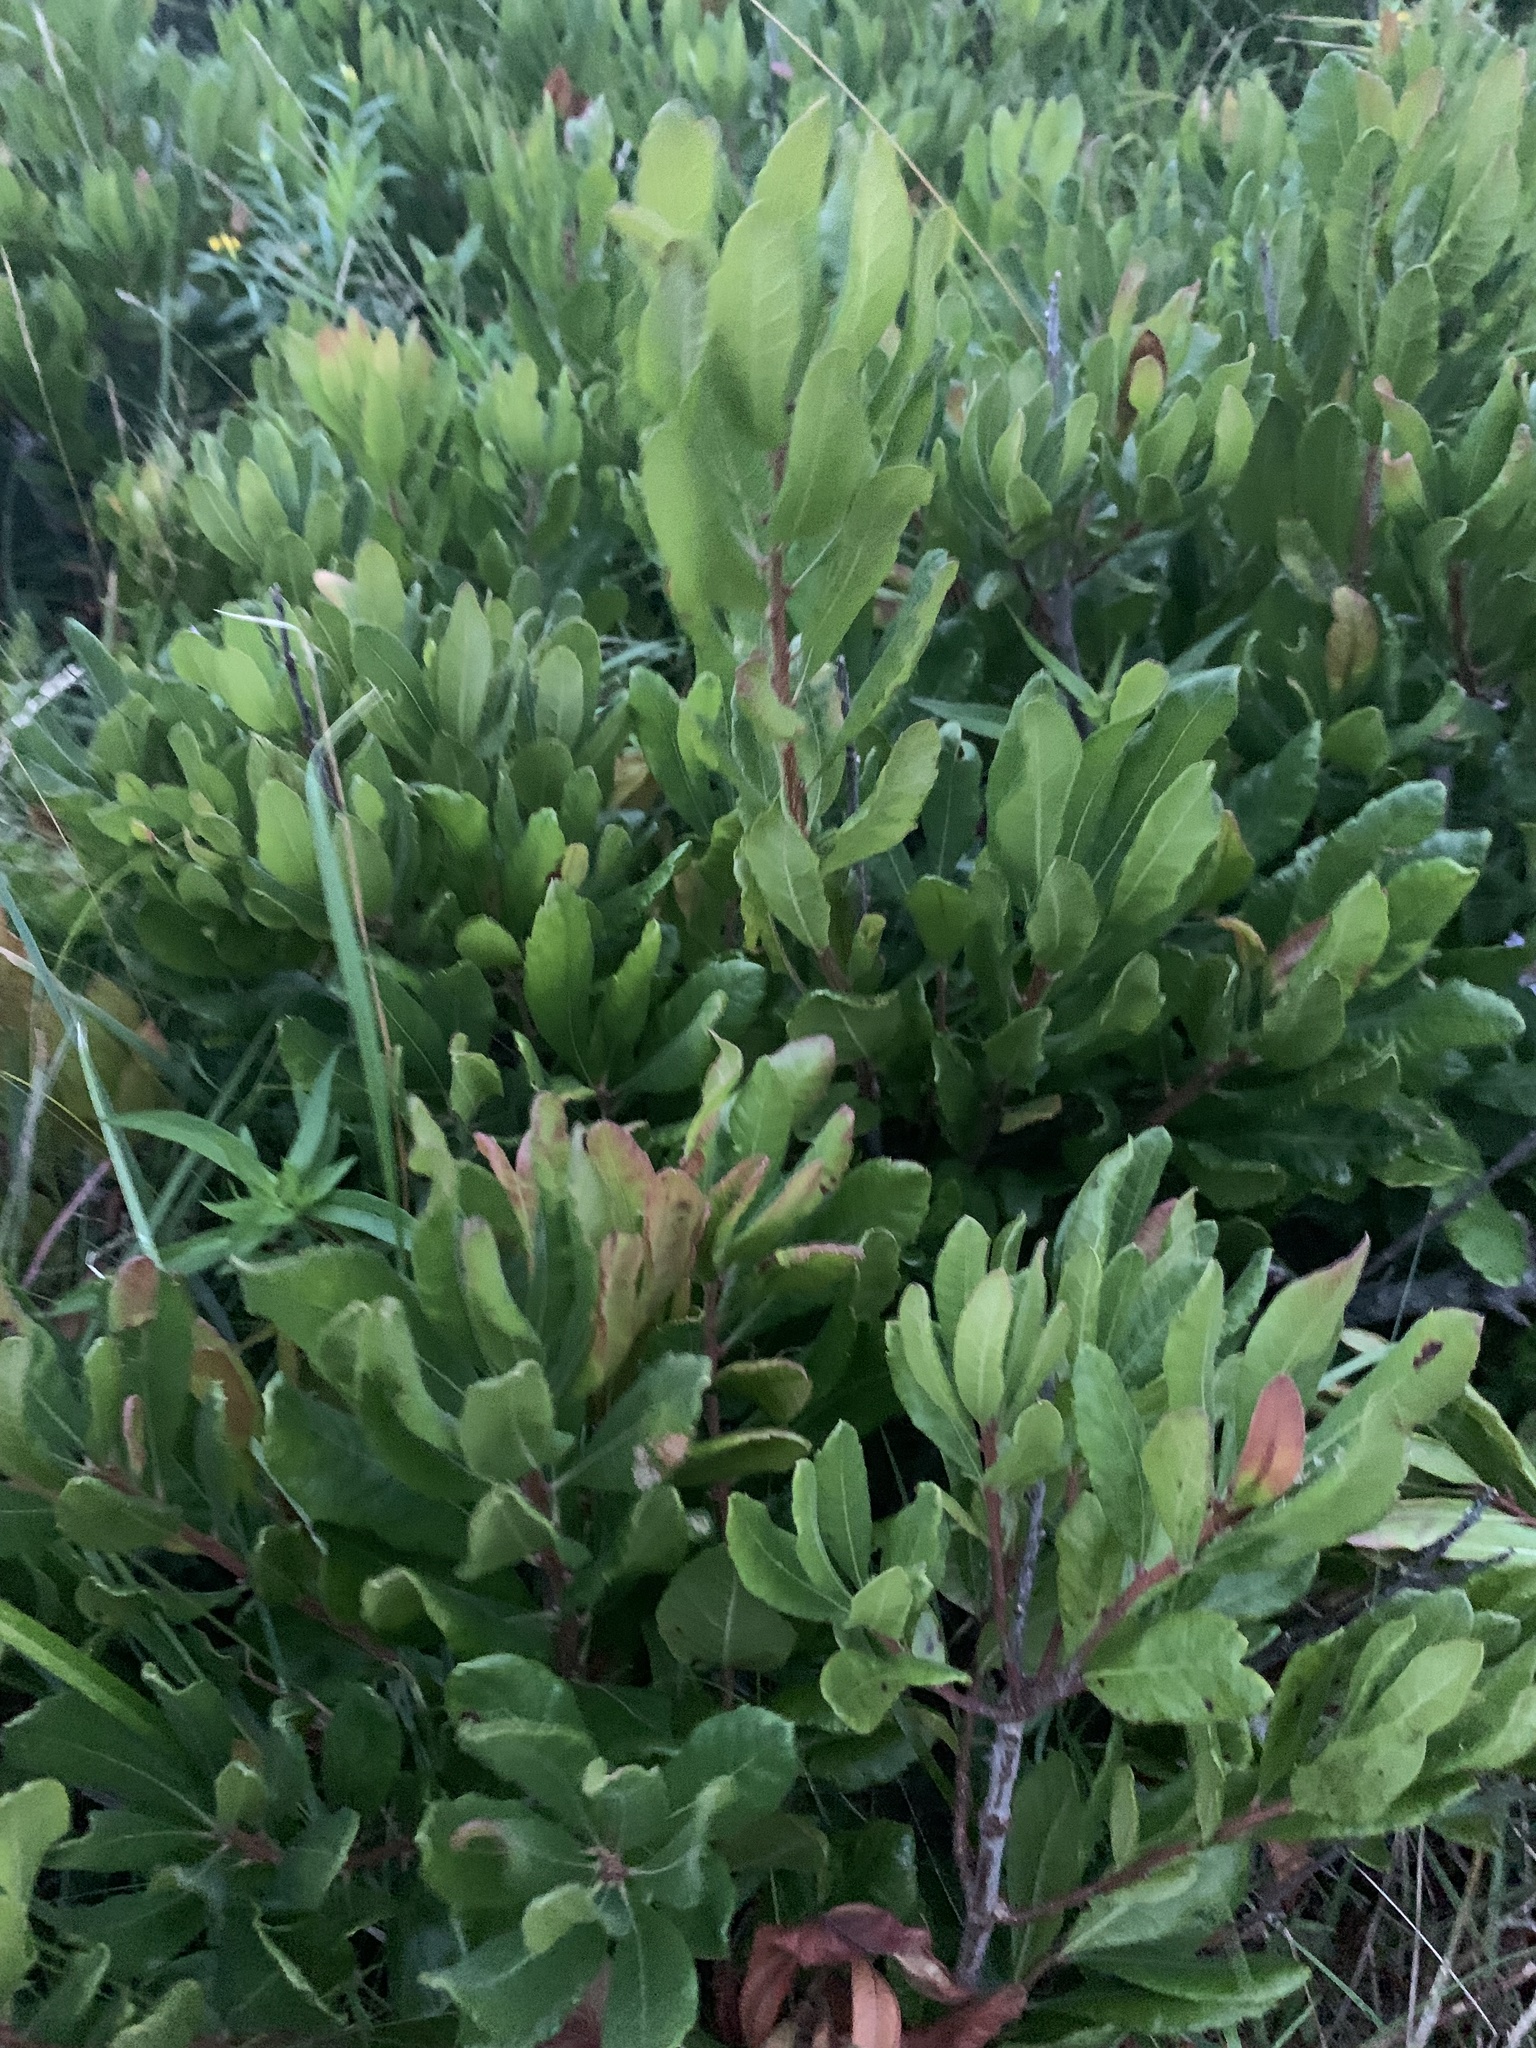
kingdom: Plantae
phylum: Tracheophyta
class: Magnoliopsida
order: Fagales
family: Myricaceae
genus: Morella
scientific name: Morella pensylvanica
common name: Northern bayberry
